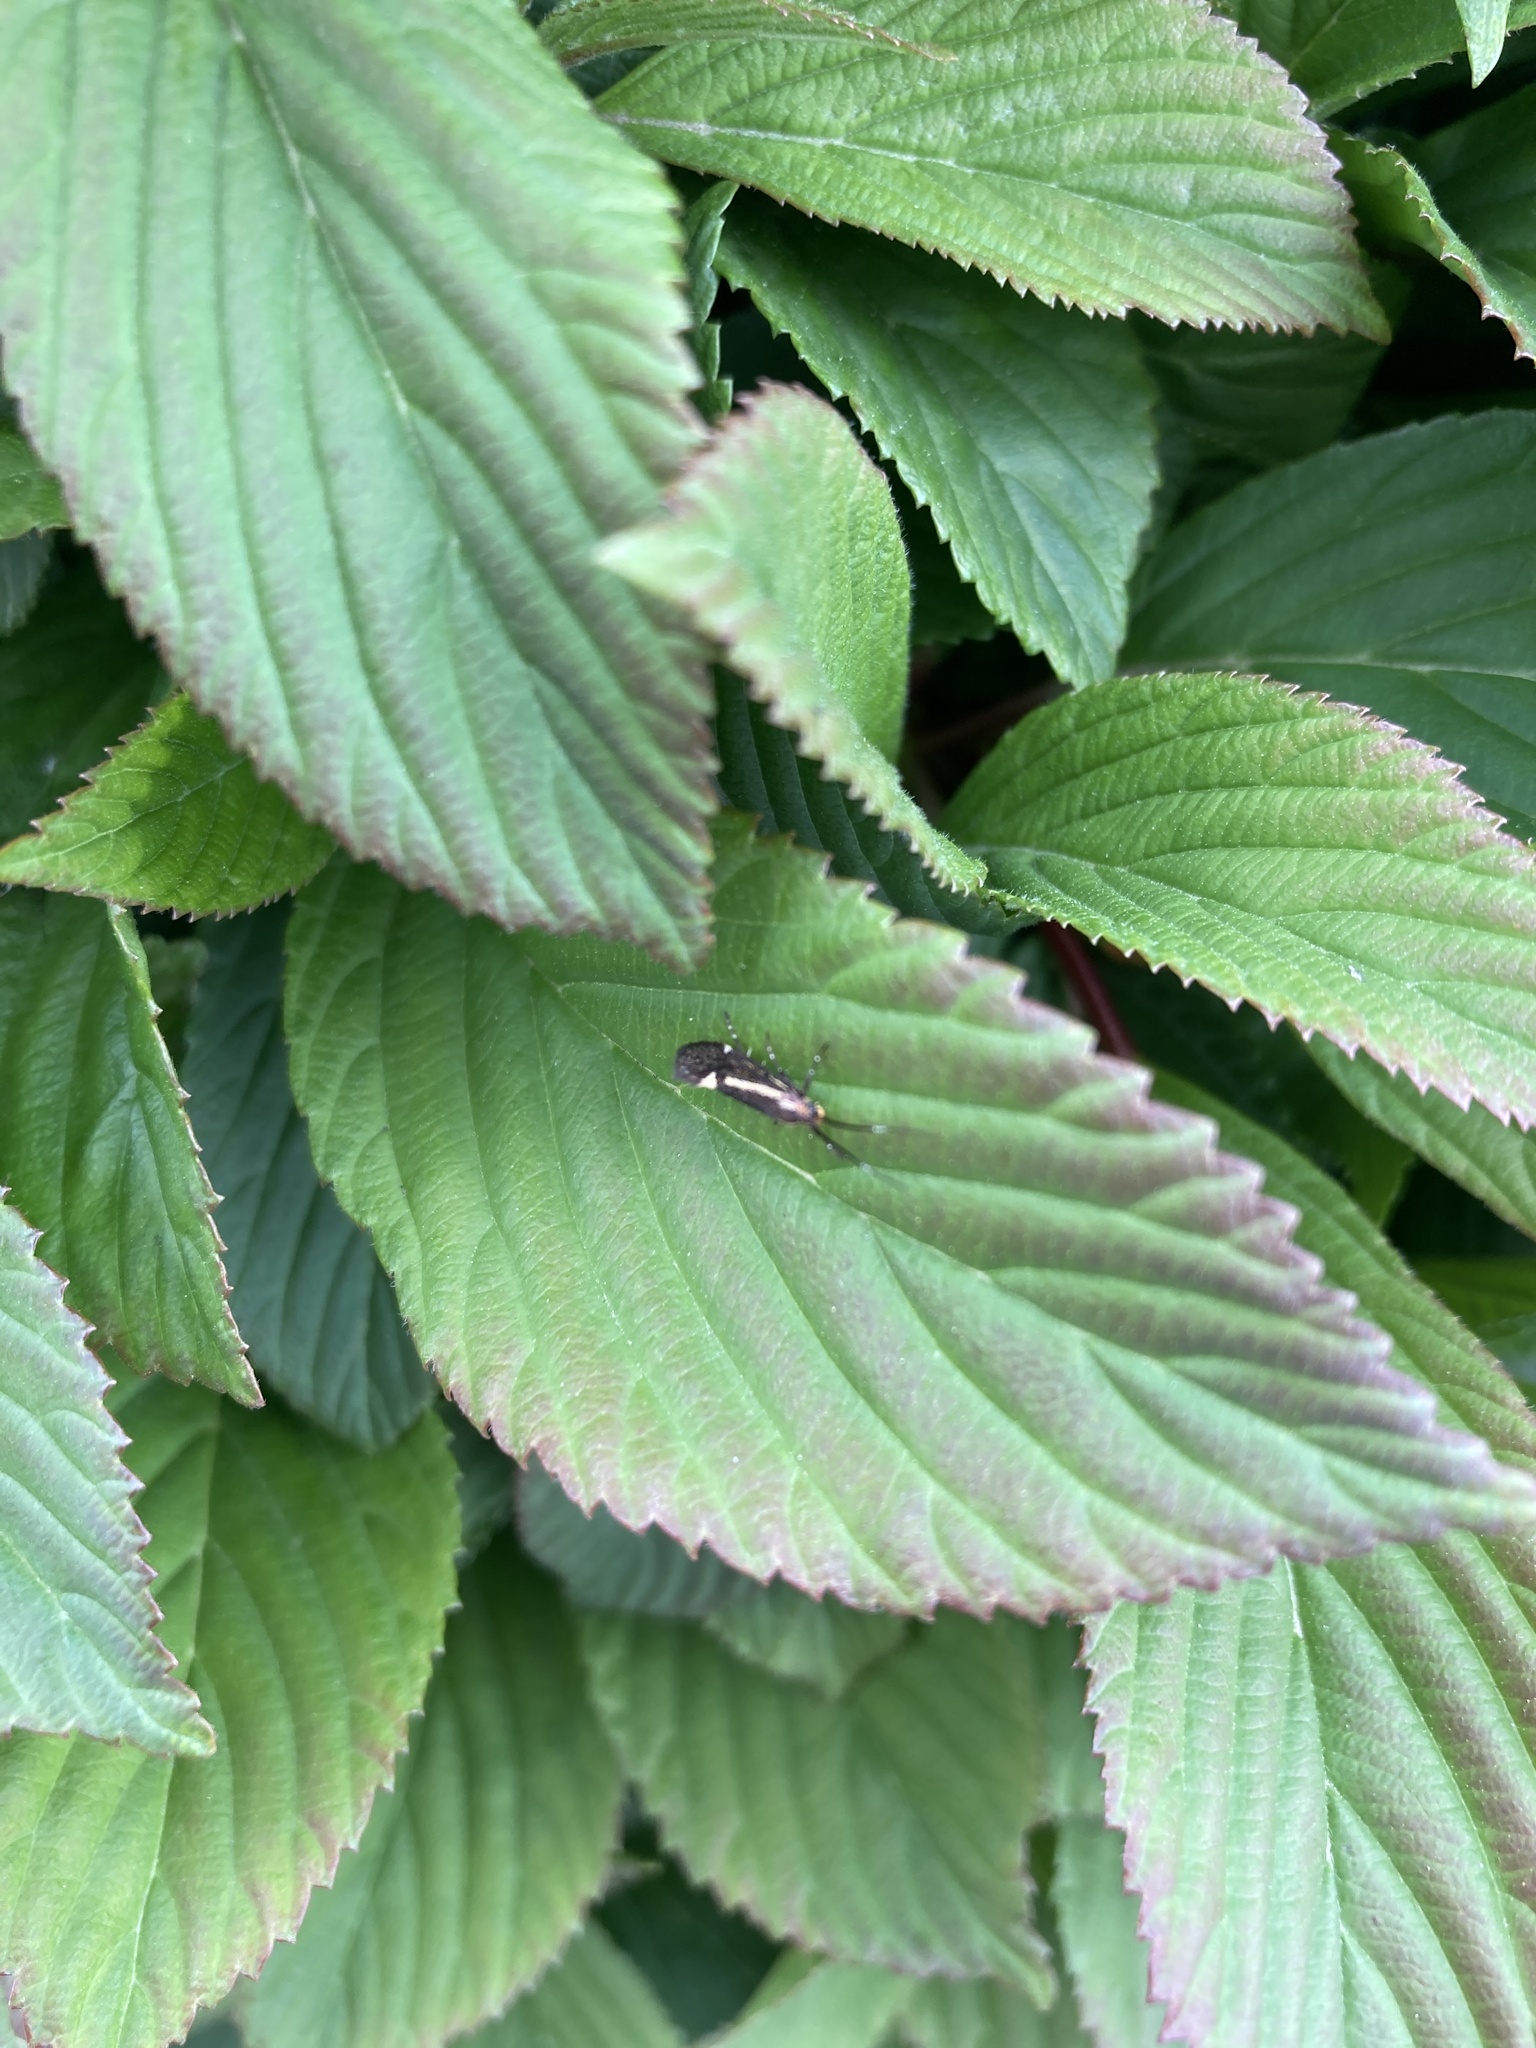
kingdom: Animalia
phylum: Arthropoda
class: Insecta
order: Lepidoptera
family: Oecophoridae
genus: Dafa
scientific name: Dafa Esperia sulphurella
